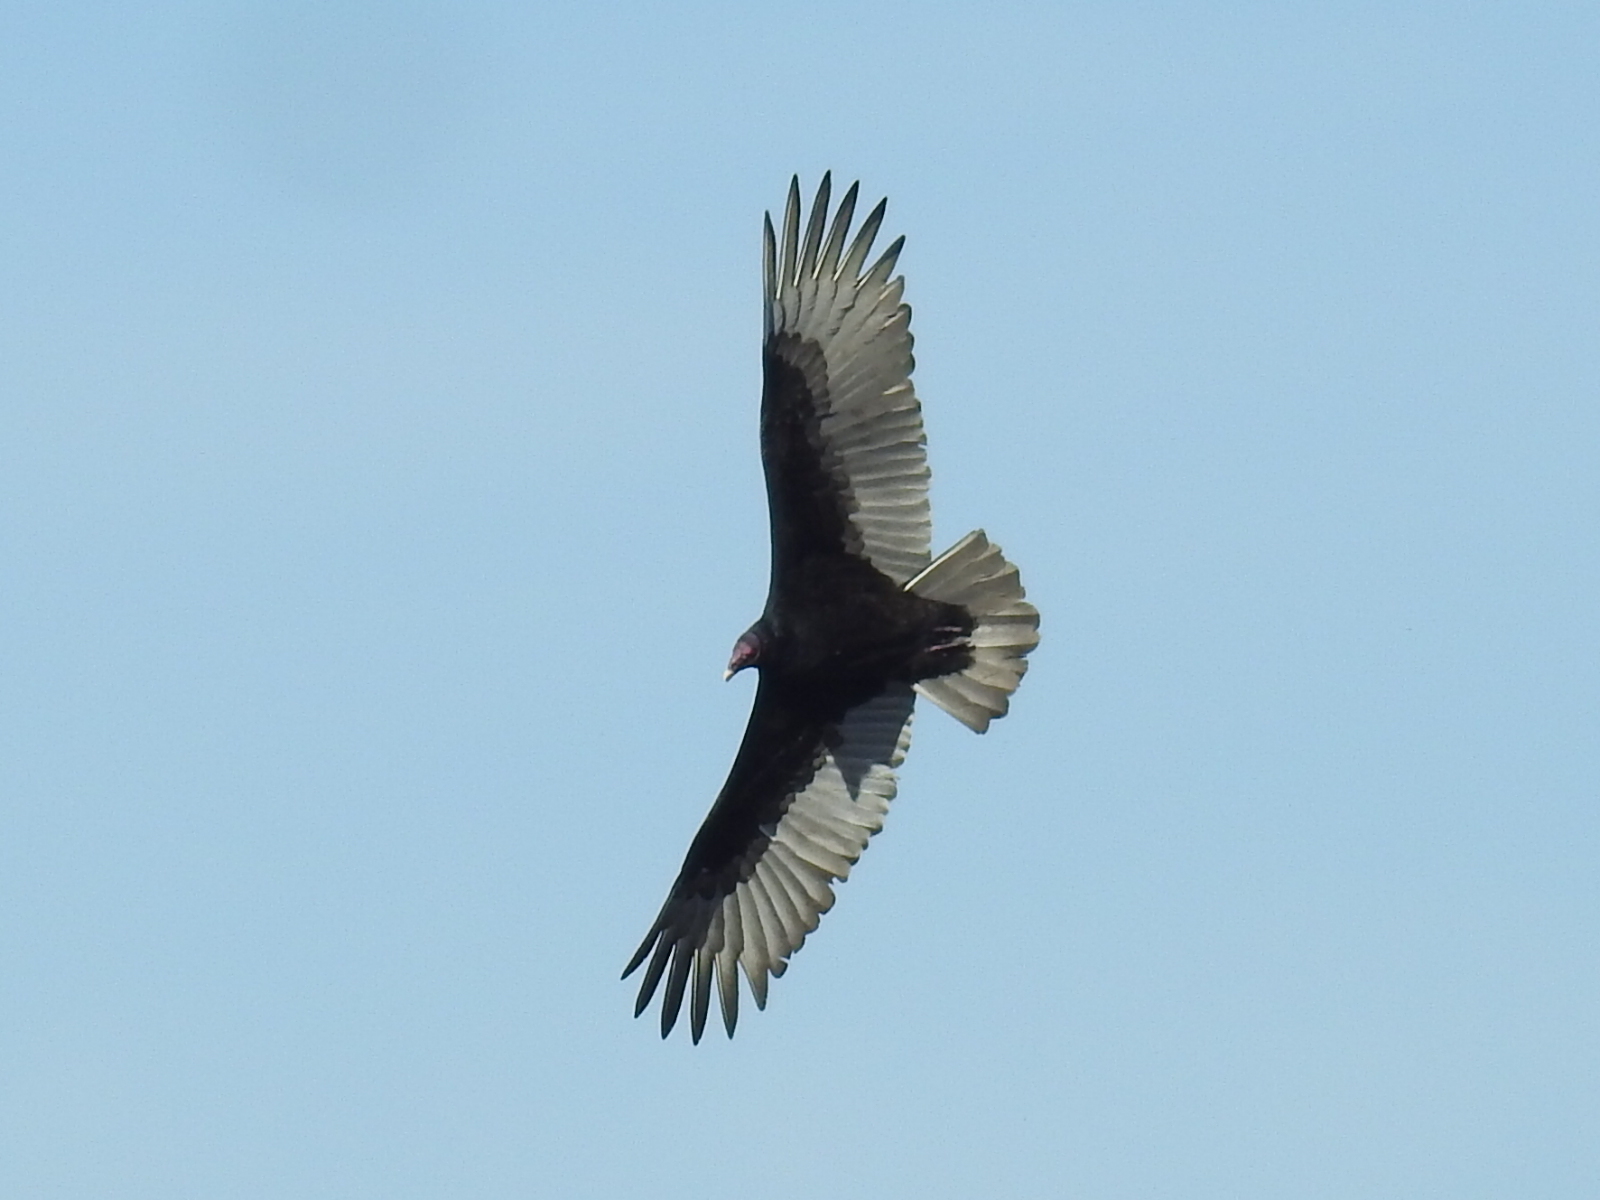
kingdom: Animalia
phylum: Chordata
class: Aves
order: Accipitriformes
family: Cathartidae
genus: Cathartes
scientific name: Cathartes aura
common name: Turkey vulture
